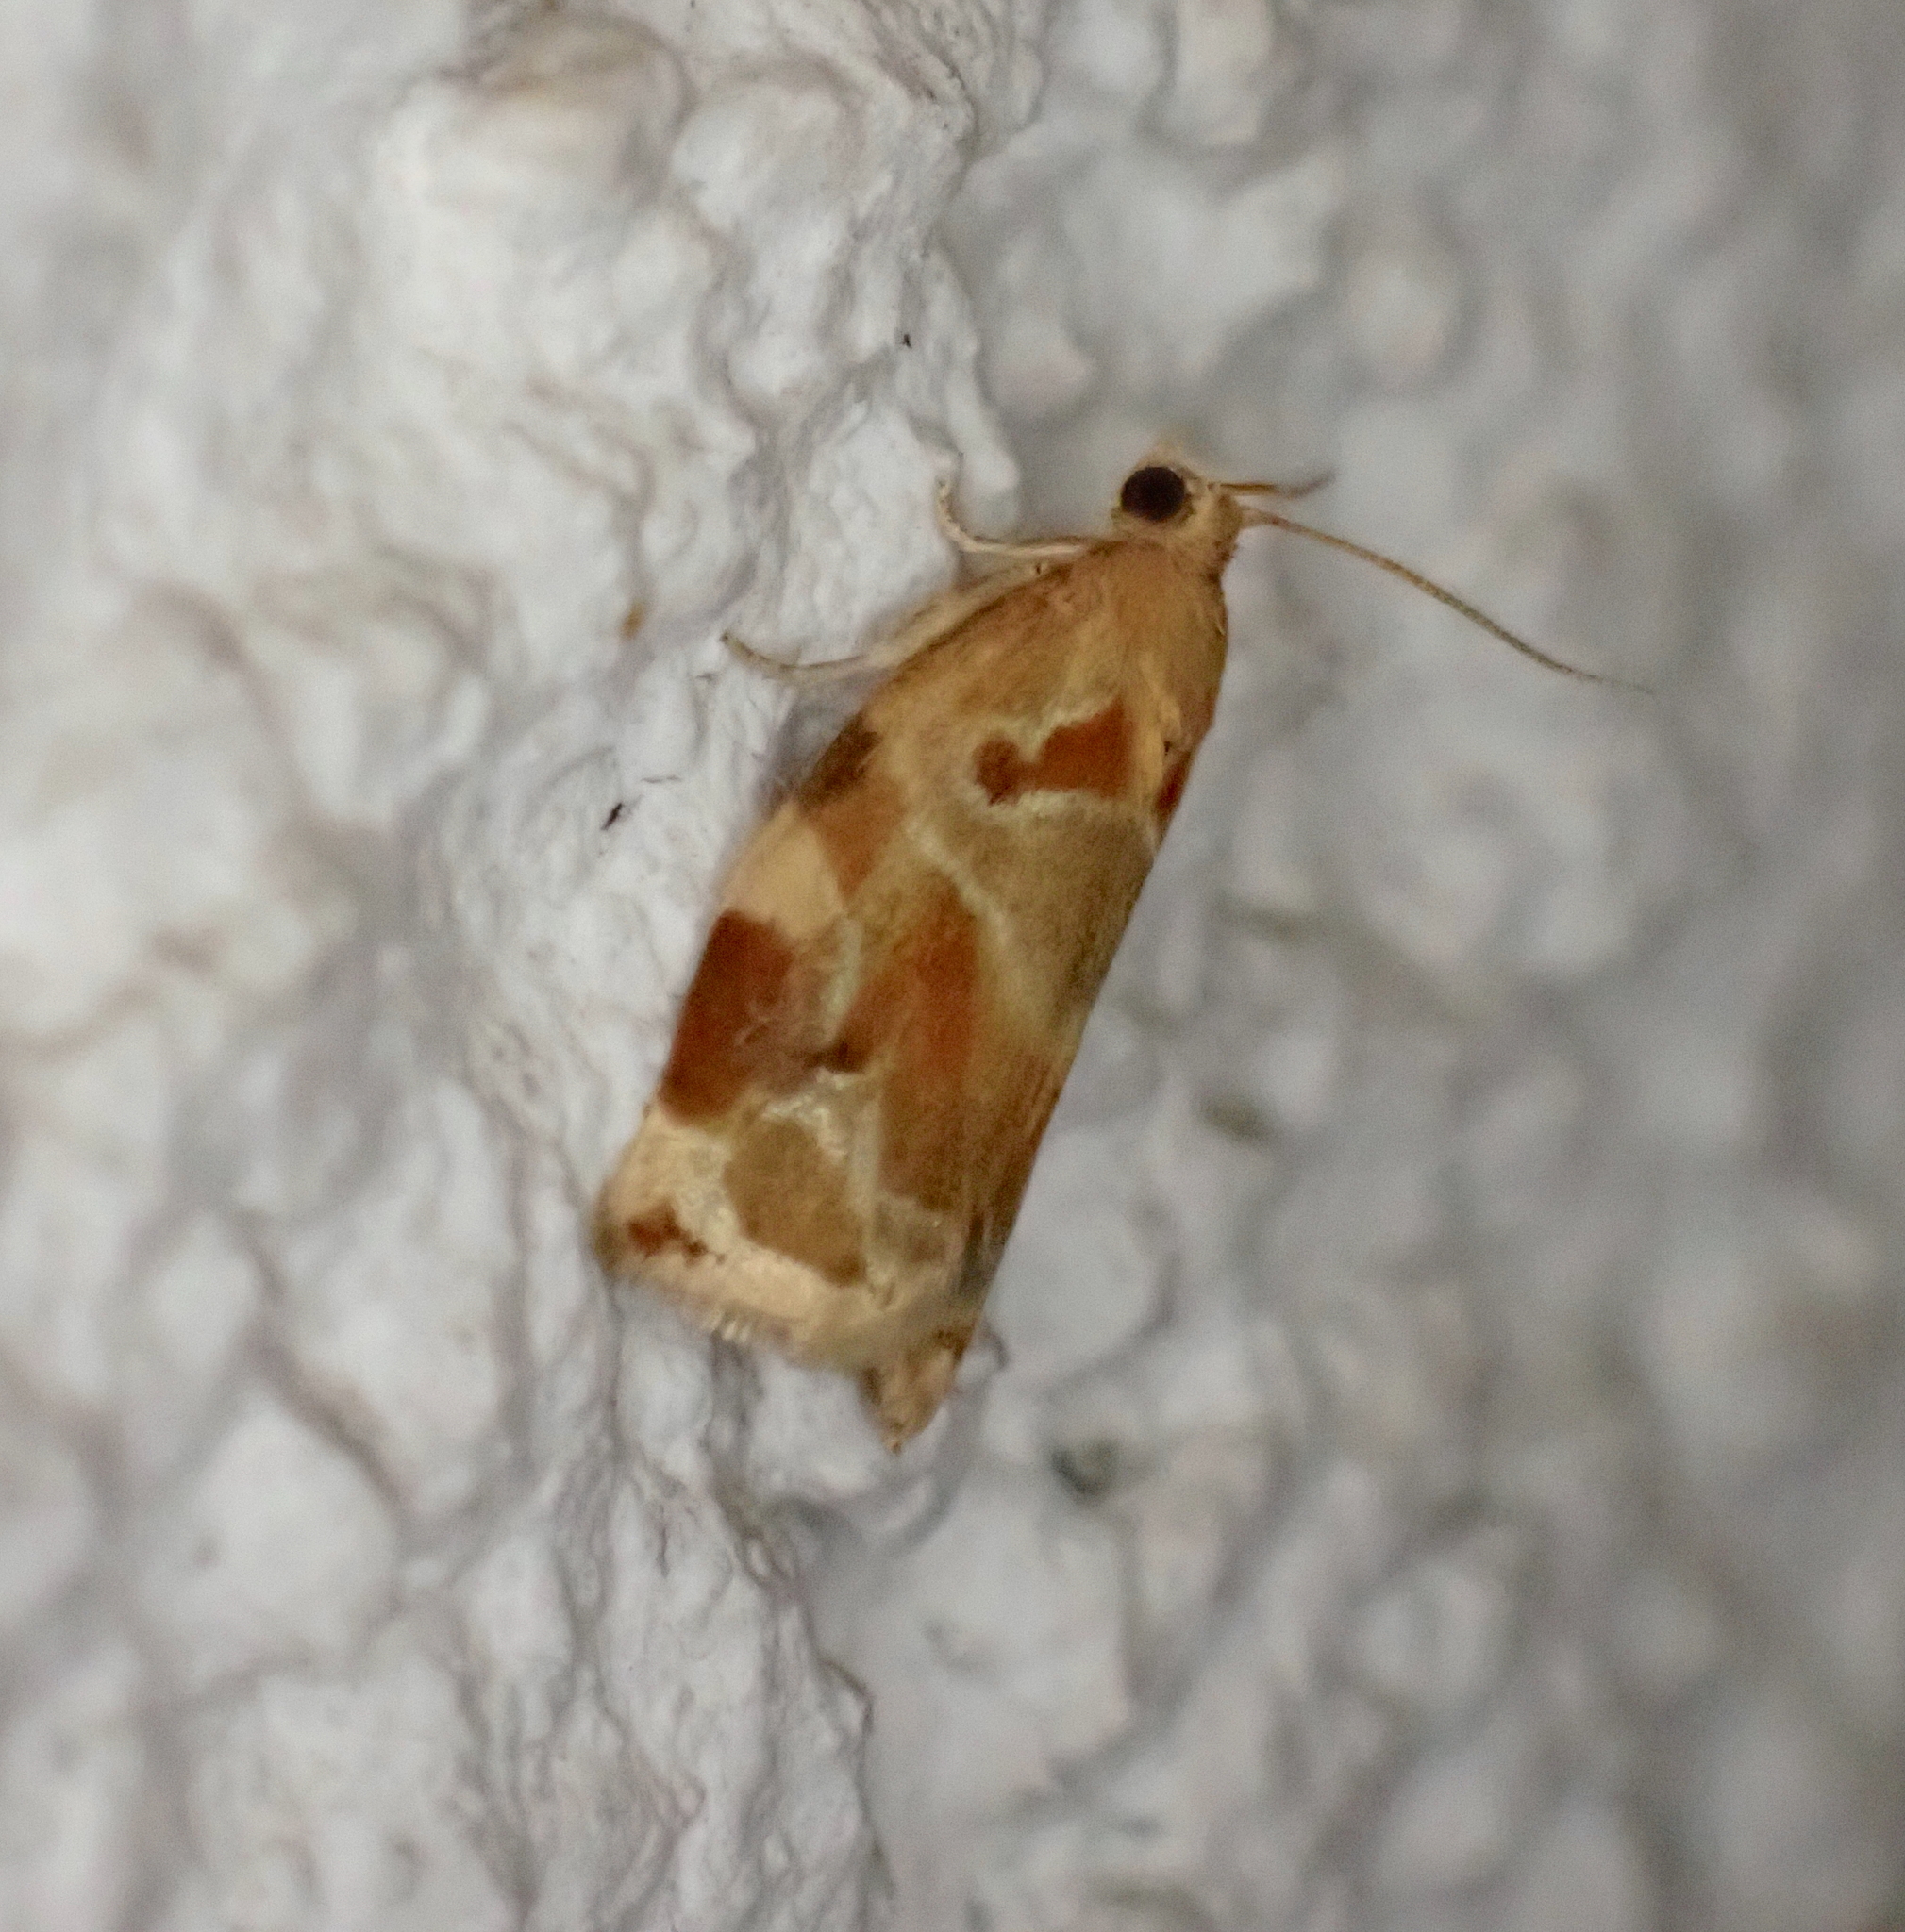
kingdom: Animalia
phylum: Arthropoda
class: Insecta
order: Lepidoptera
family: Tortricidae
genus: Archips
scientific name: Archips xylosteana
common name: Variegated golden tortrix
